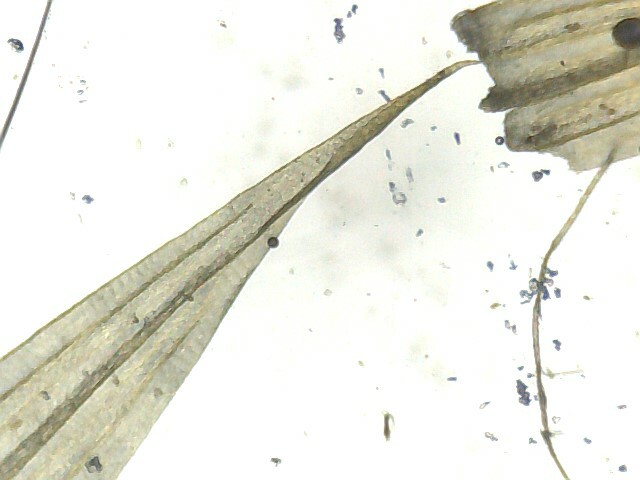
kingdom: Plantae
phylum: Bryophyta
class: Bryopsida
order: Hypnales
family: Amblystegiaceae
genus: Tomentypnum
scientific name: Tomentypnum nitens
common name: Golden fuzzy fen moss
